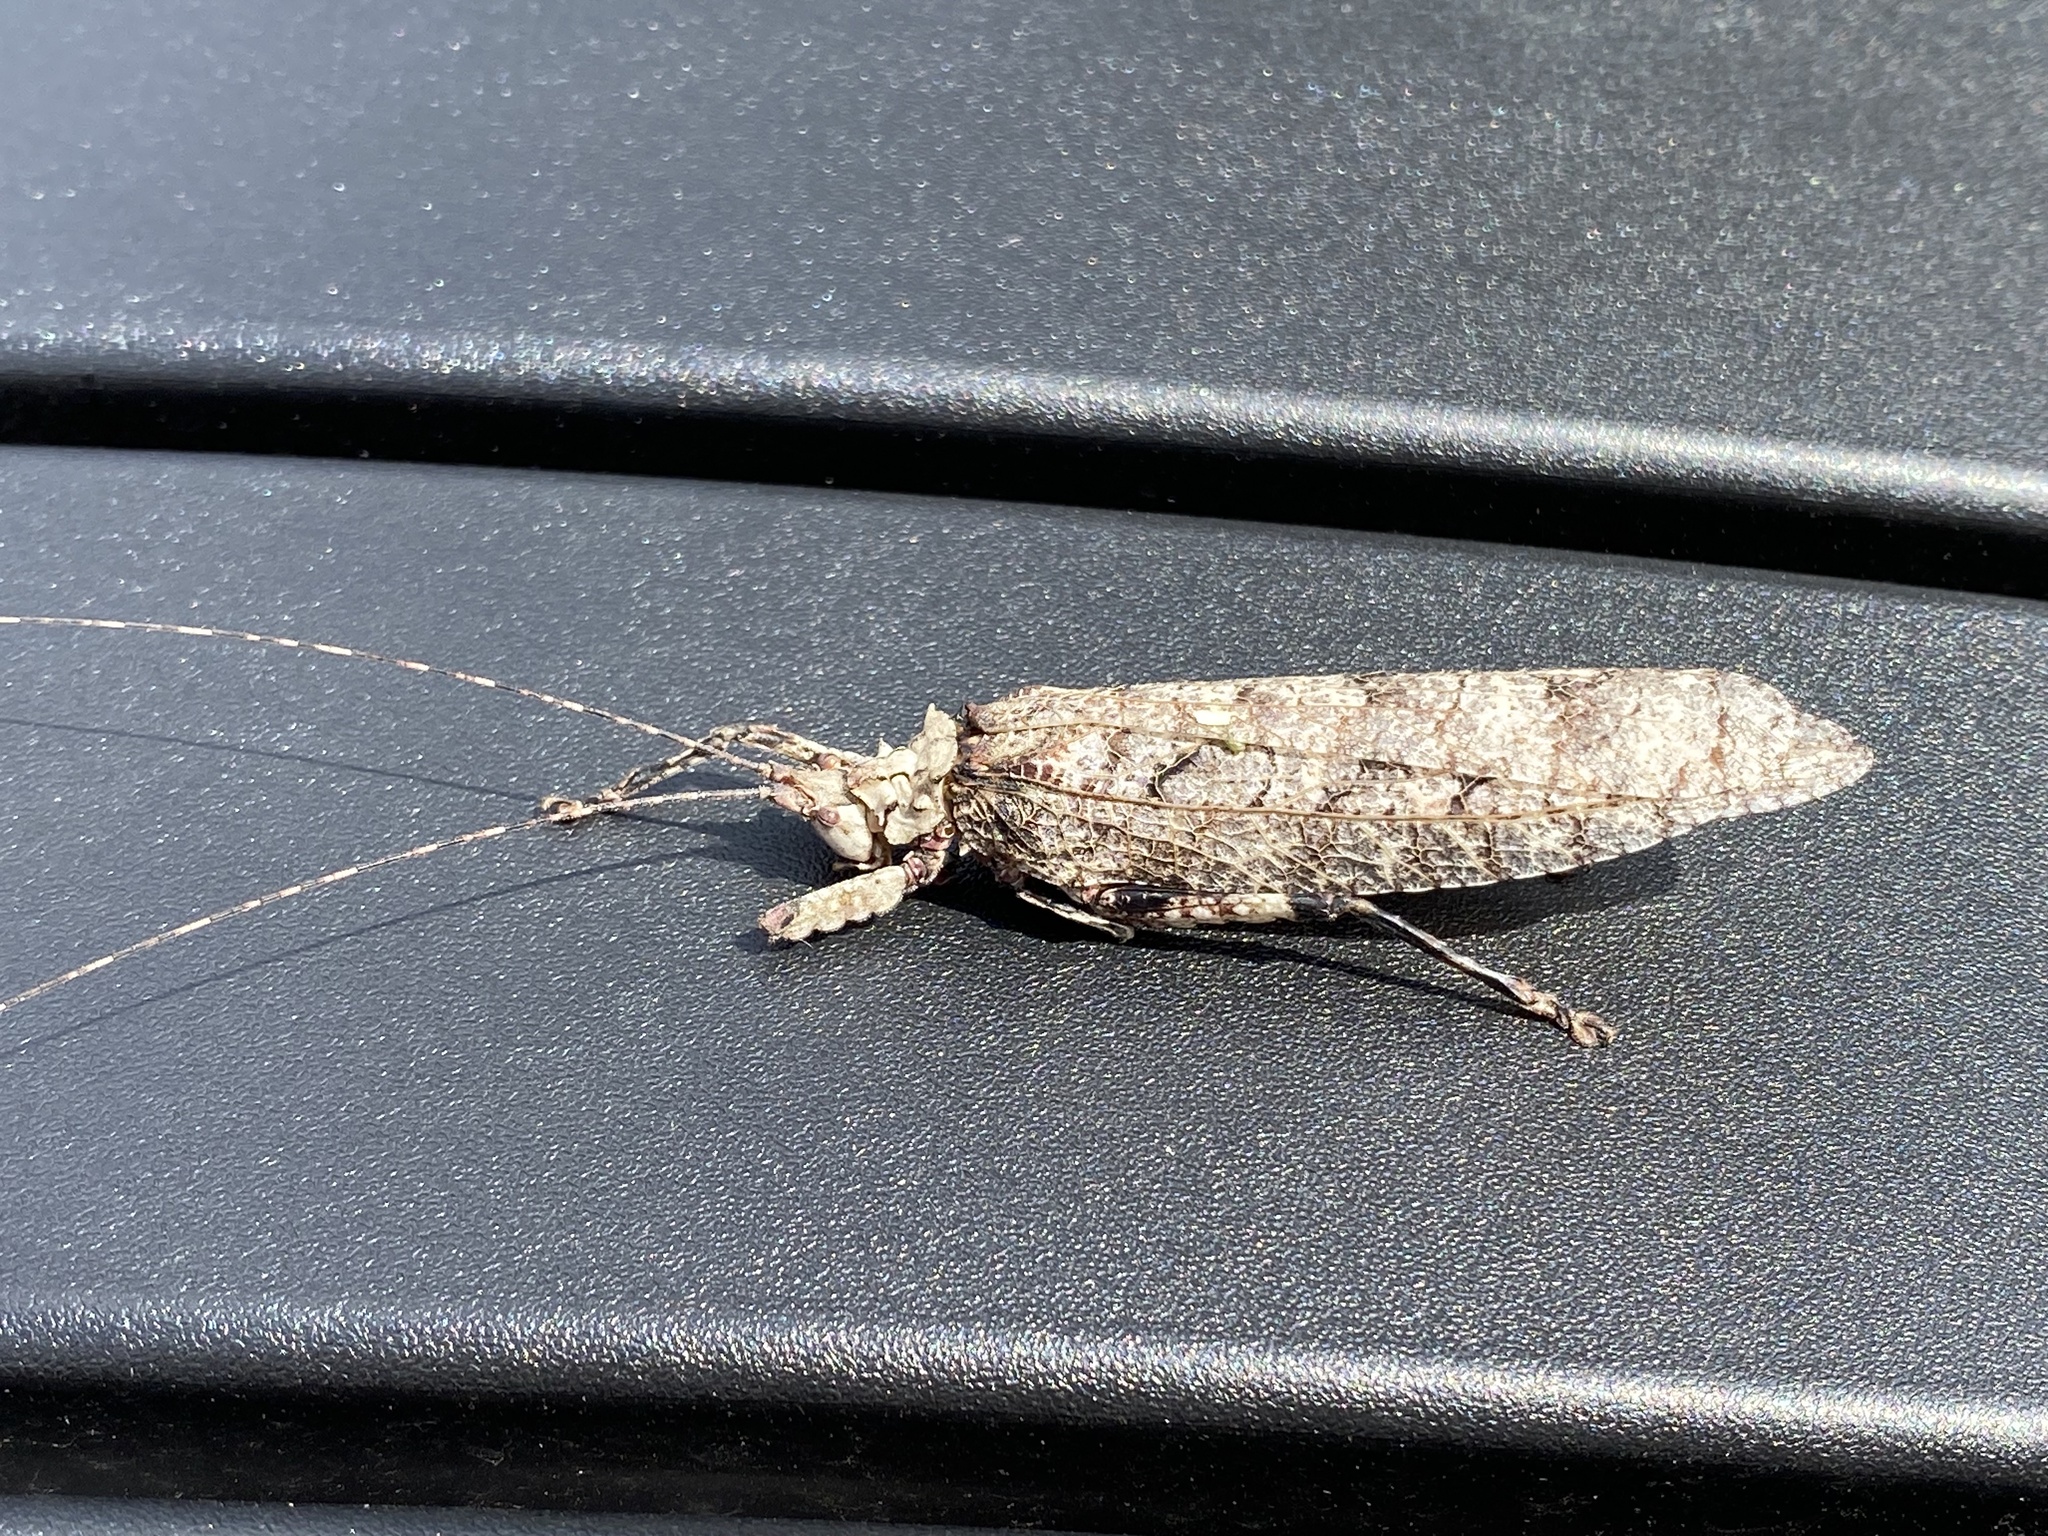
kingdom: Animalia
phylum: Arthropoda
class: Insecta
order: Orthoptera
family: Tettigoniidae
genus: Cymatomera
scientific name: Cymatomera denticollis
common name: Common bark katydid
